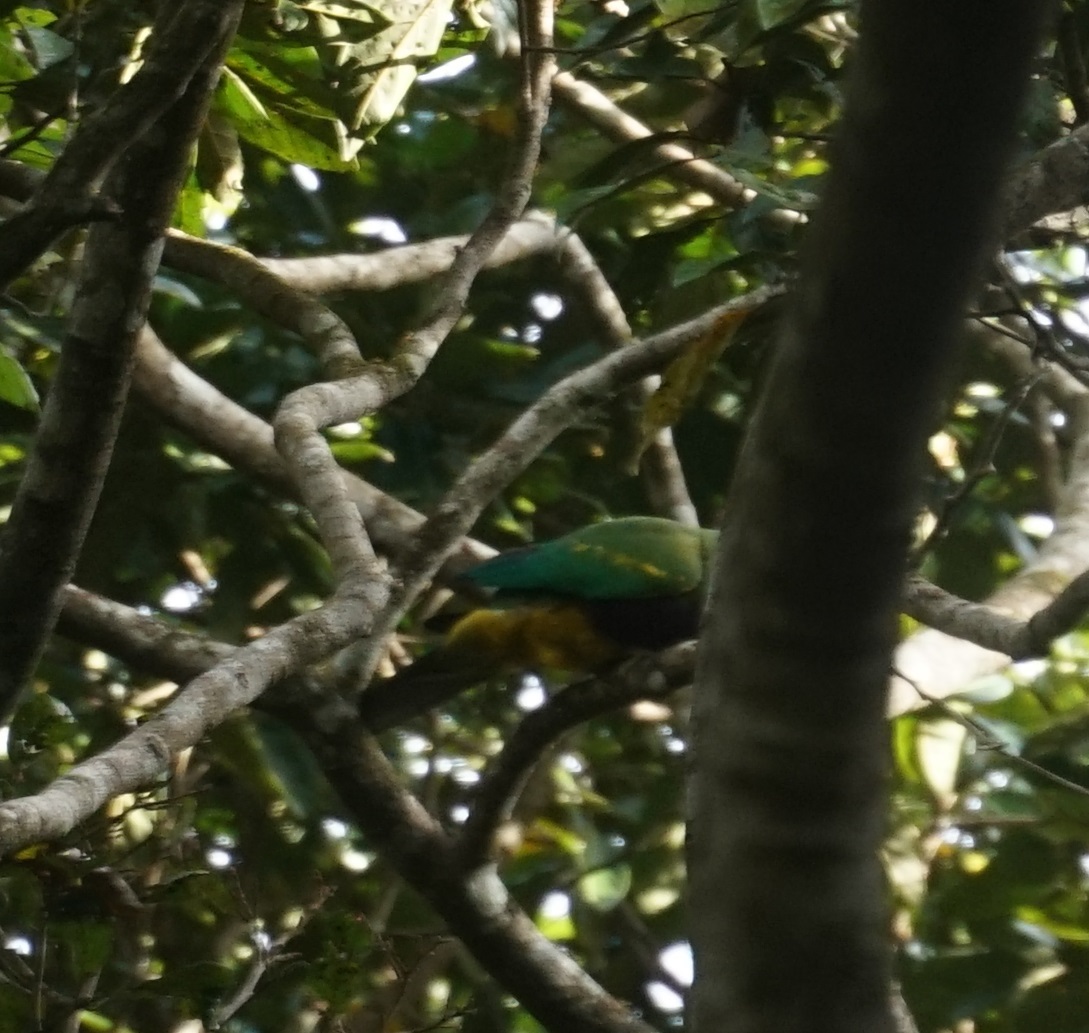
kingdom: Animalia
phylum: Chordata
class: Aves
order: Columbiformes
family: Columbidae
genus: Ptilinopus
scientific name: Ptilinopus magnificus
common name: Wompoo fruit dove
